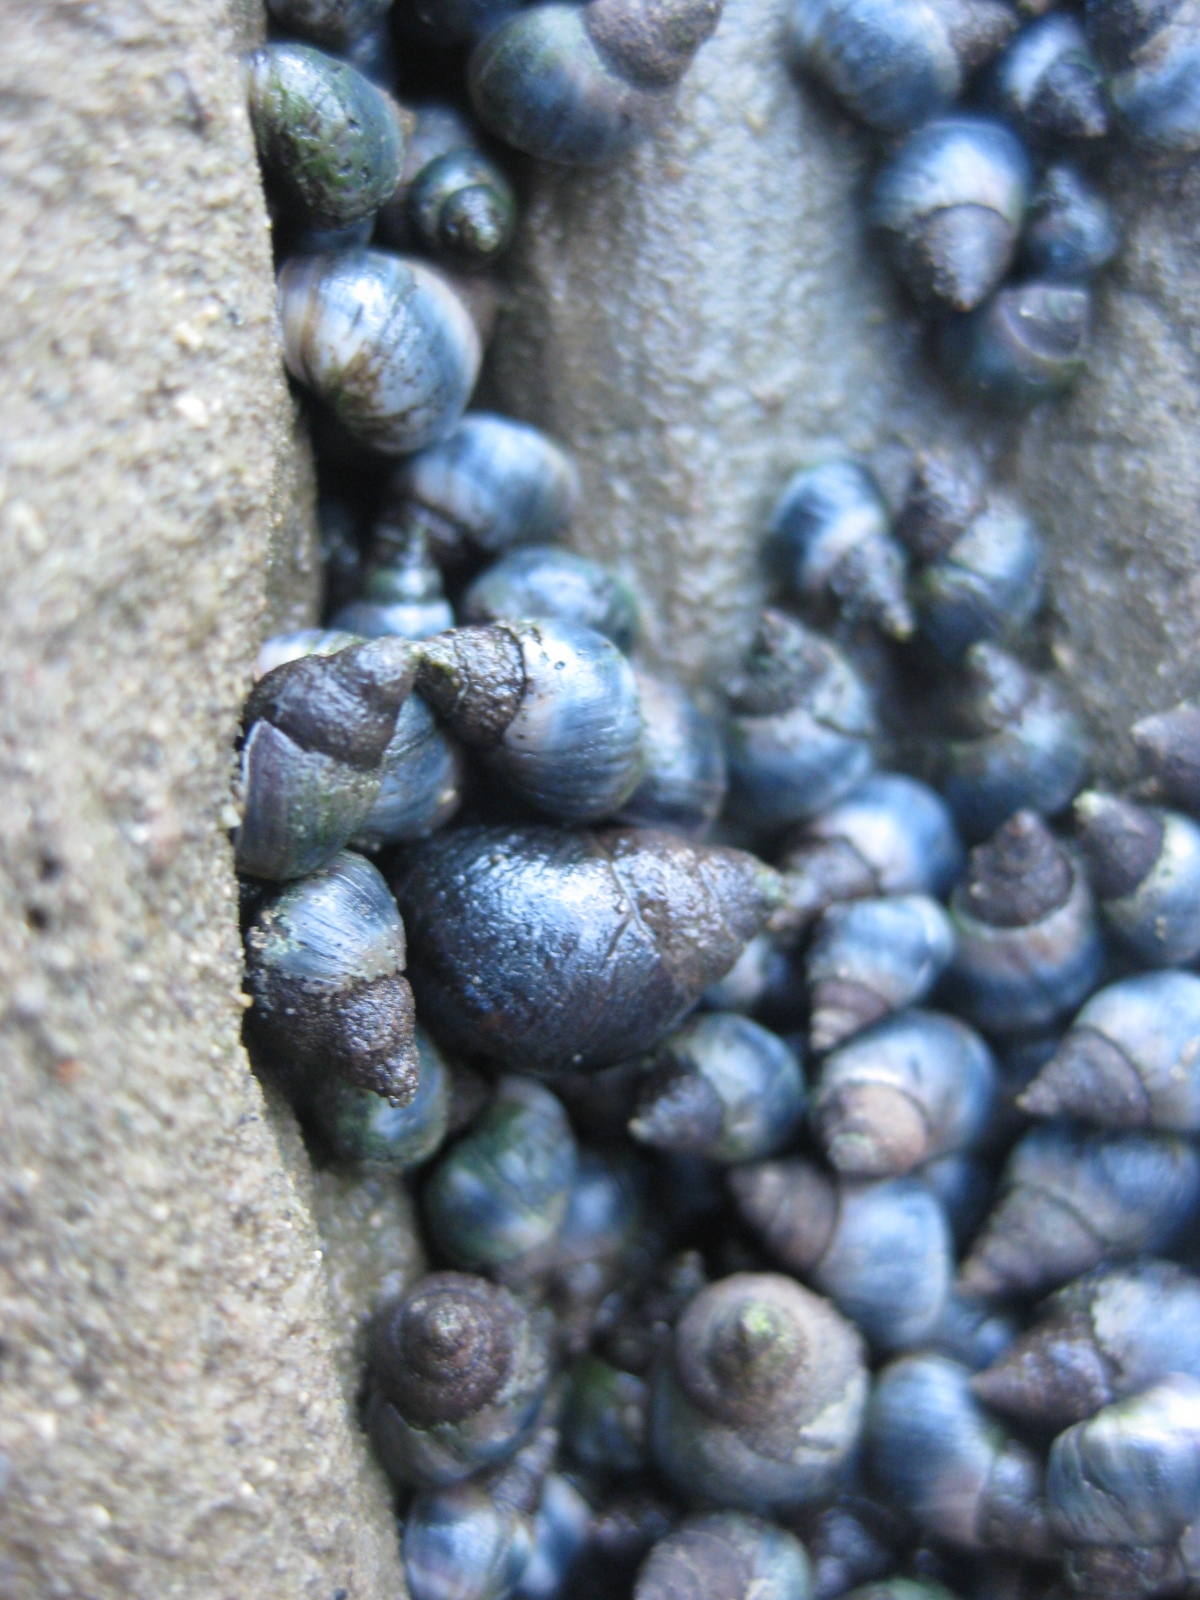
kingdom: Animalia
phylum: Mollusca
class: Gastropoda
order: Littorinimorpha
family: Littorinidae
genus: Austrolittorina
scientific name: Austrolittorina antipodum
